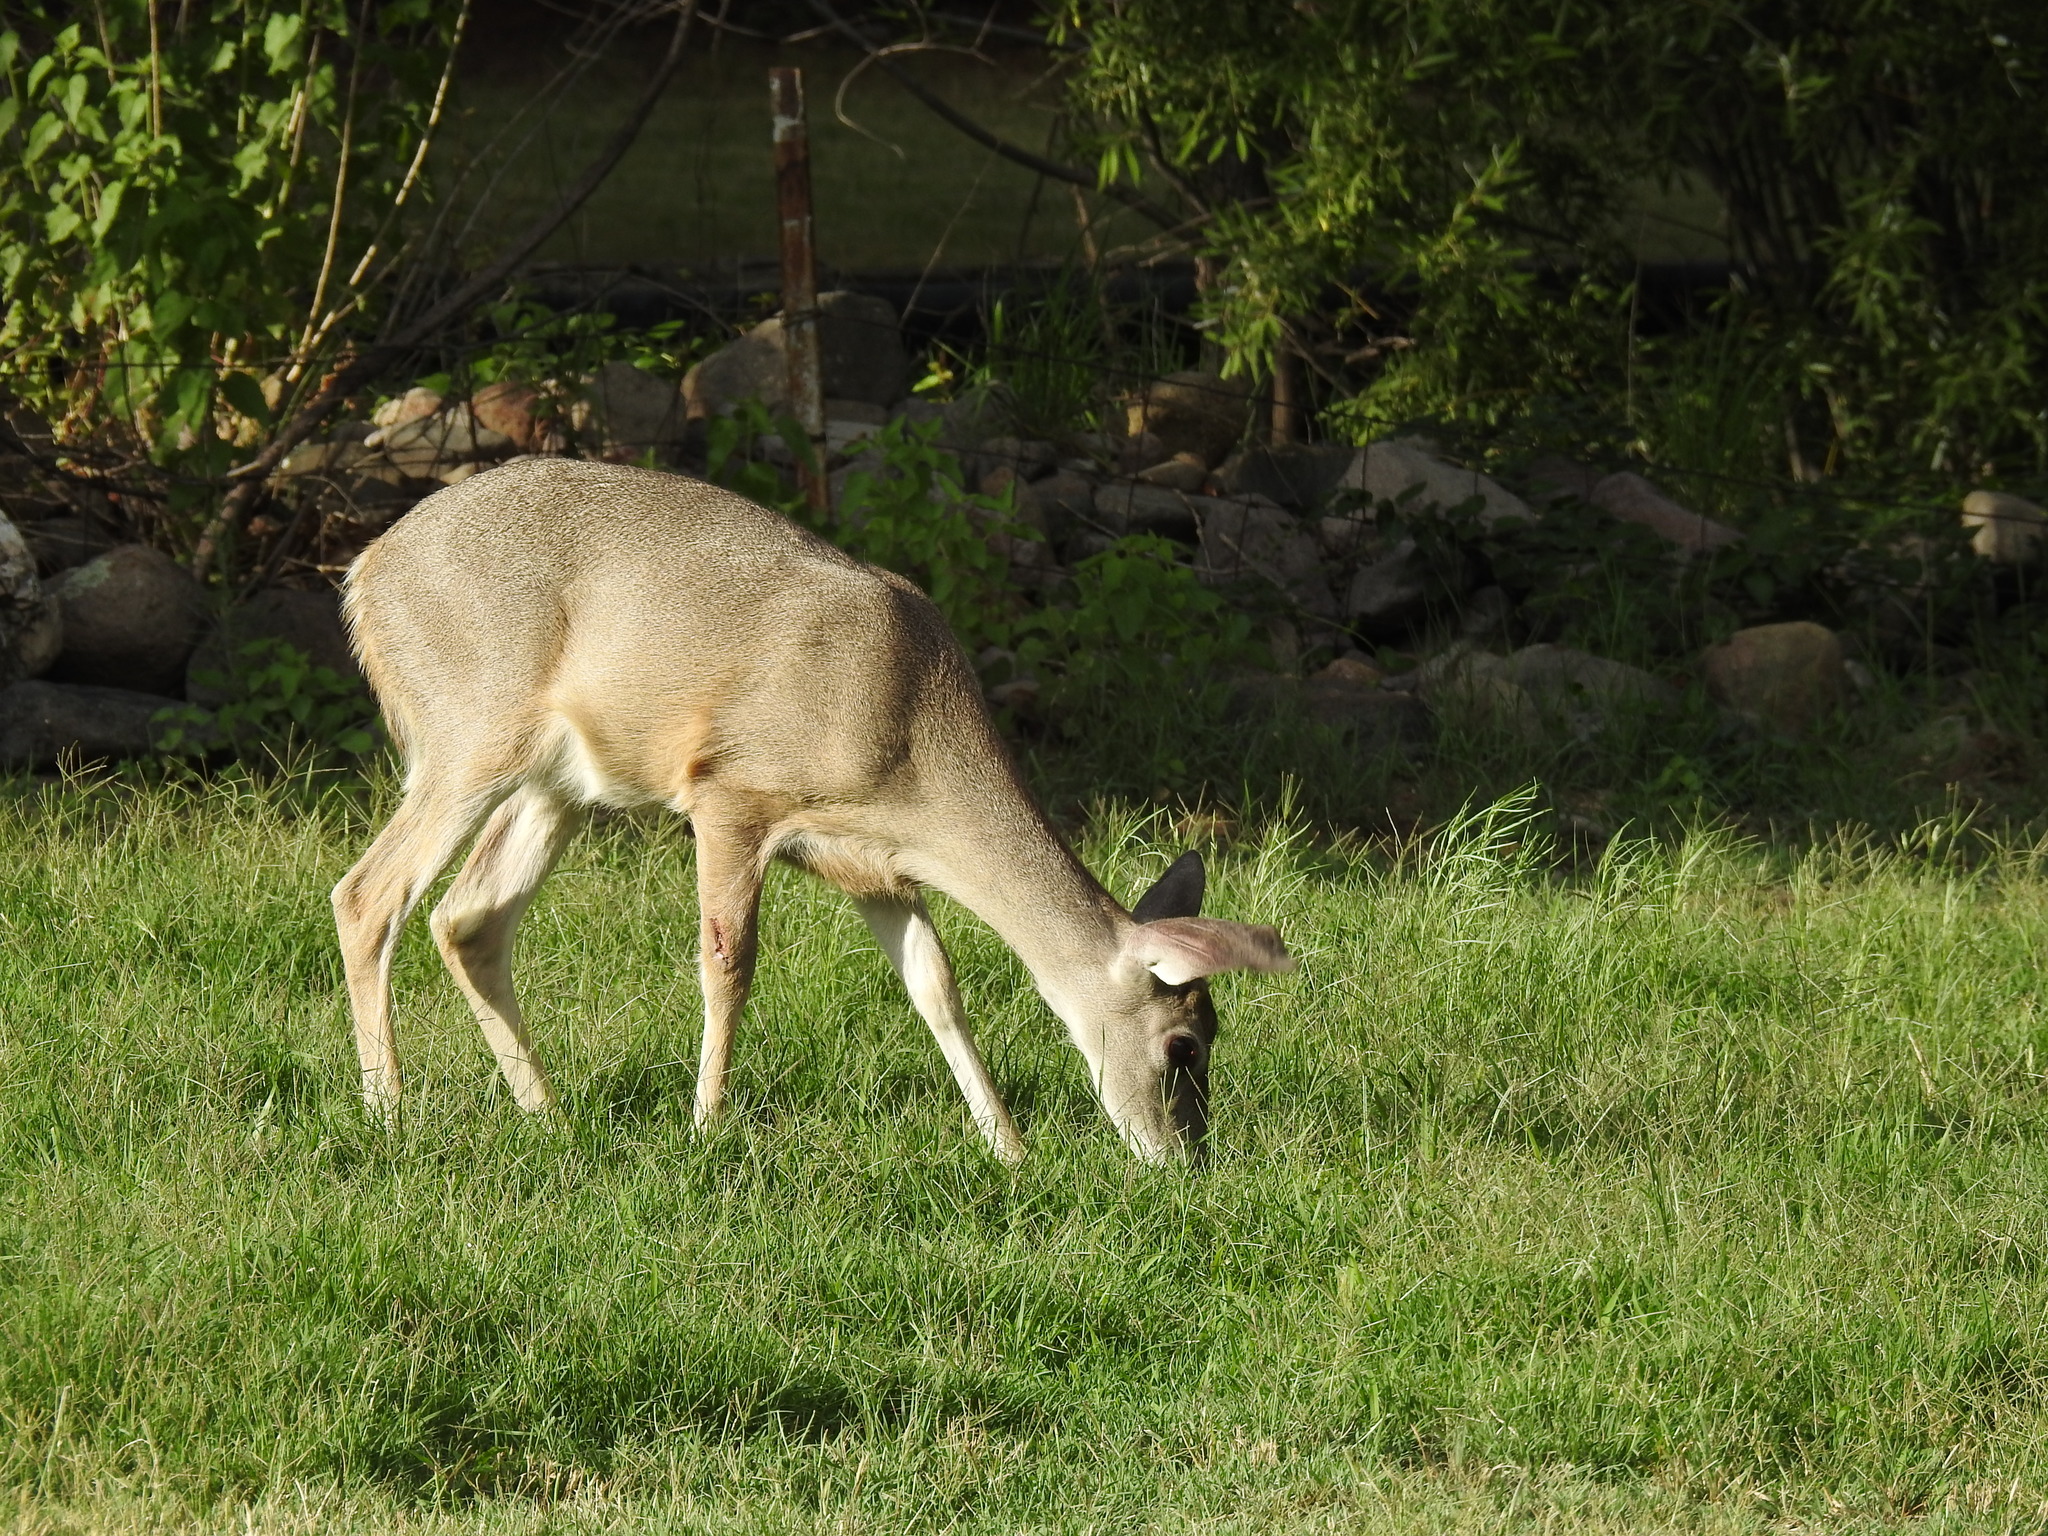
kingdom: Animalia
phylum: Chordata
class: Mammalia
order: Artiodactyla
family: Cervidae
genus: Odocoileus
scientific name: Odocoileus virginianus
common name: White-tailed deer
